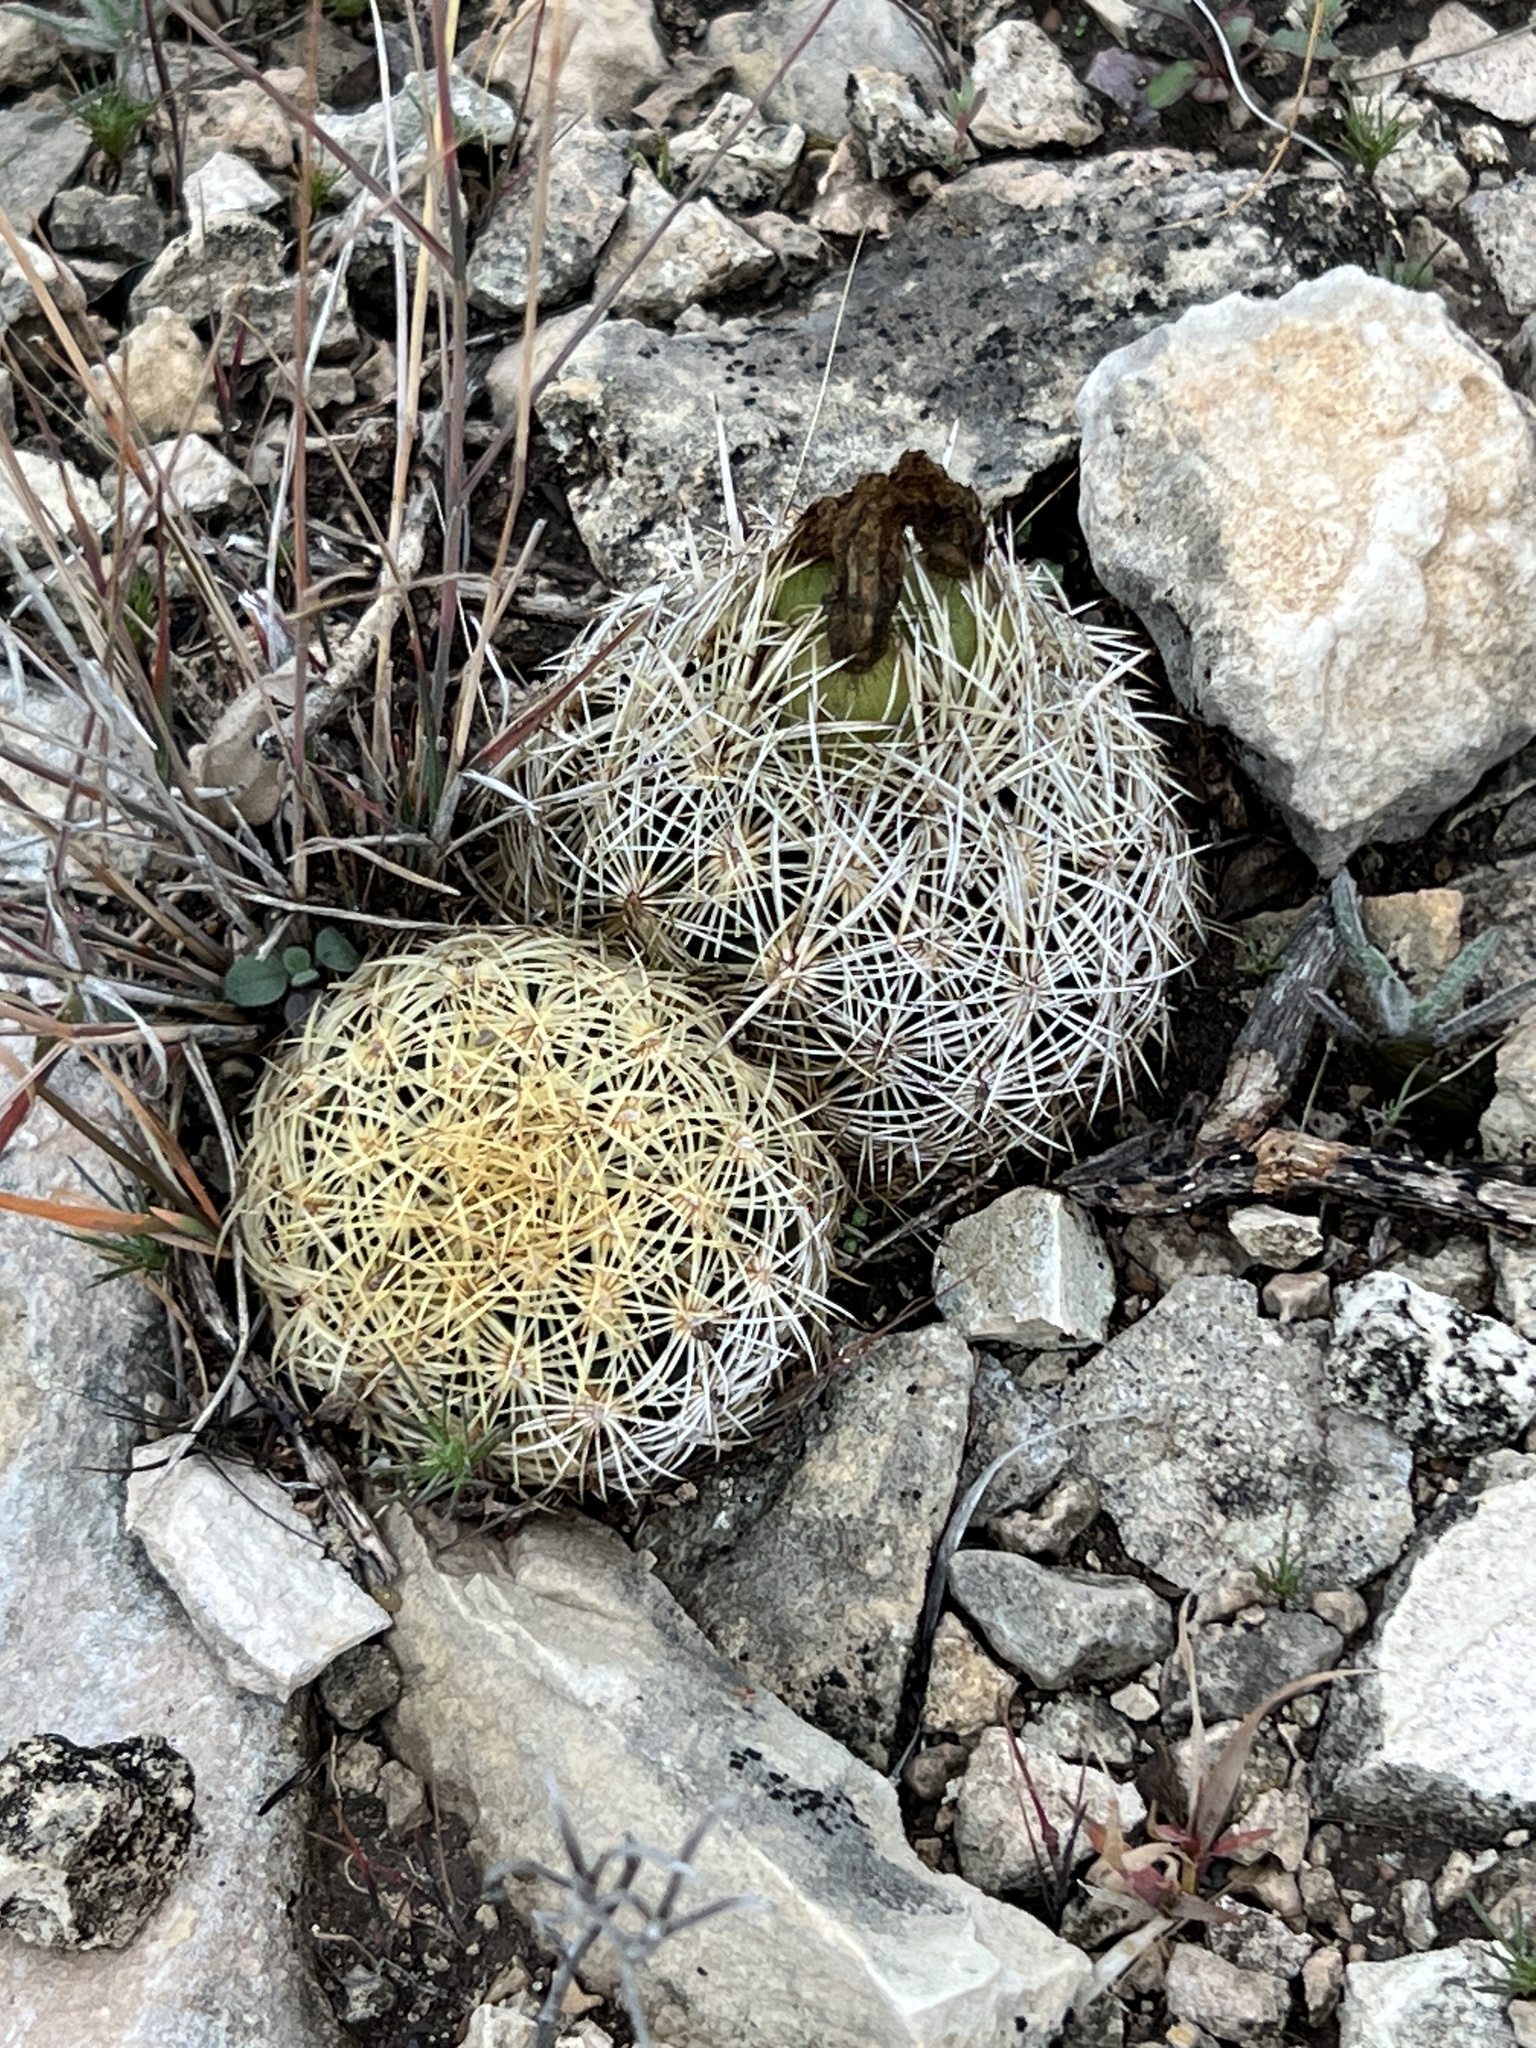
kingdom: Plantae
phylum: Tracheophyta
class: Magnoliopsida
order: Caryophyllales
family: Cactaceae
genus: Coryphantha
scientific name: Coryphantha echinus
